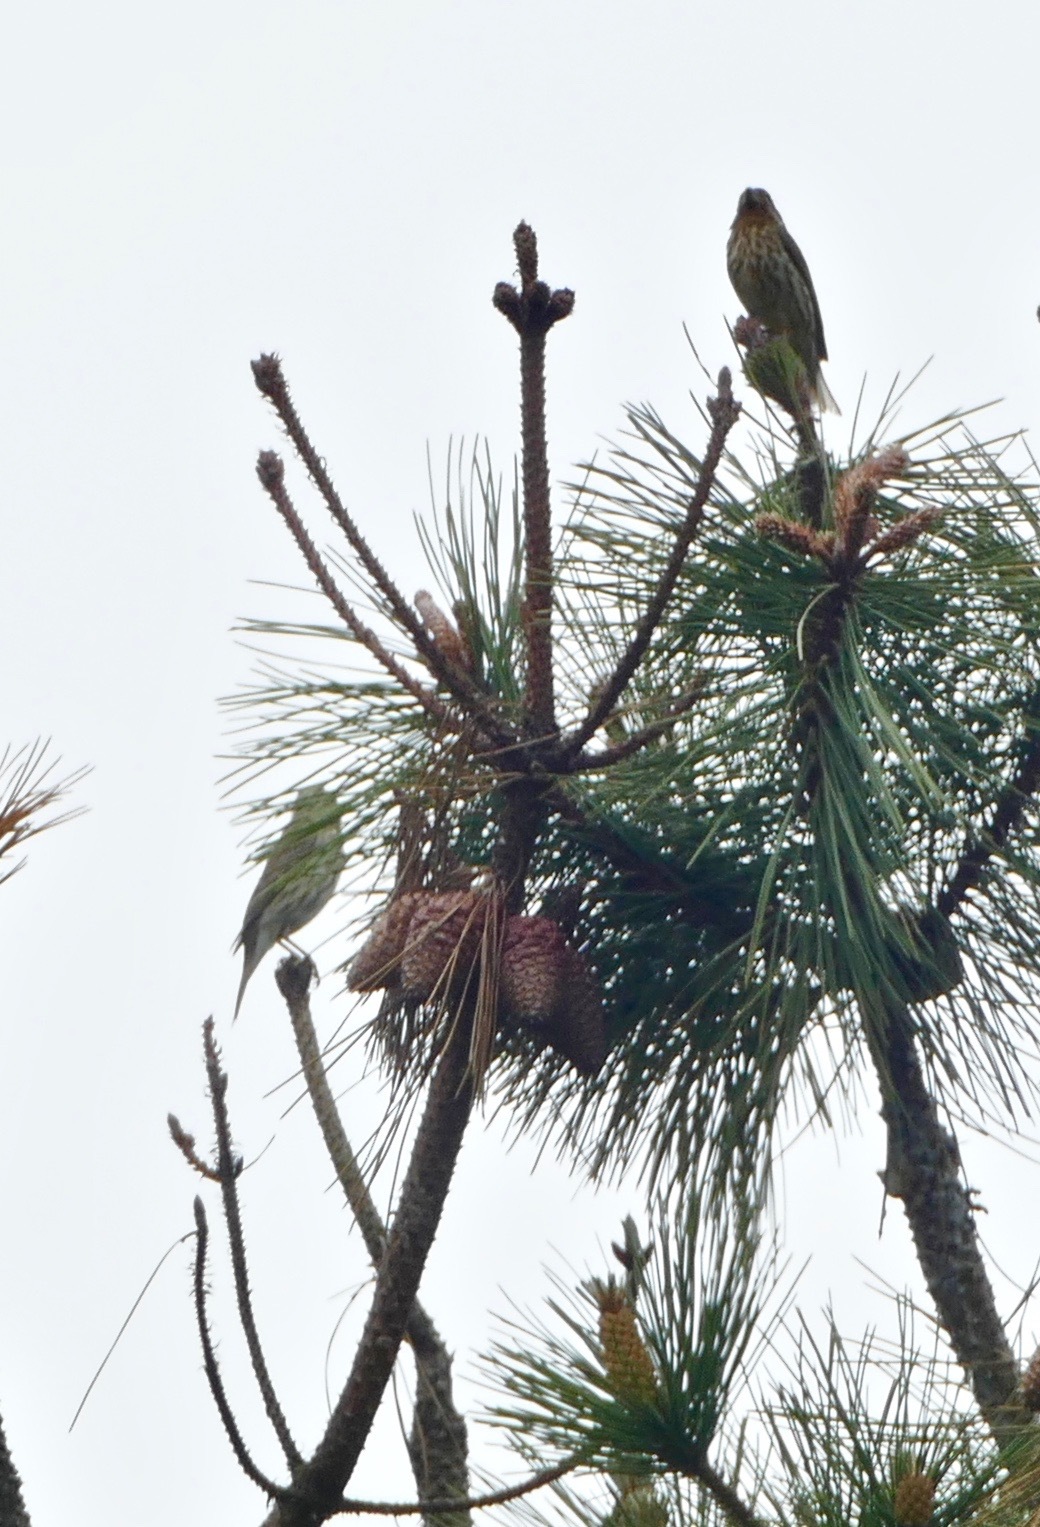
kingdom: Animalia
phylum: Chordata
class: Aves
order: Passeriformes
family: Fringillidae
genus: Haemorhous
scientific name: Haemorhous purpureus
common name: Purple finch
